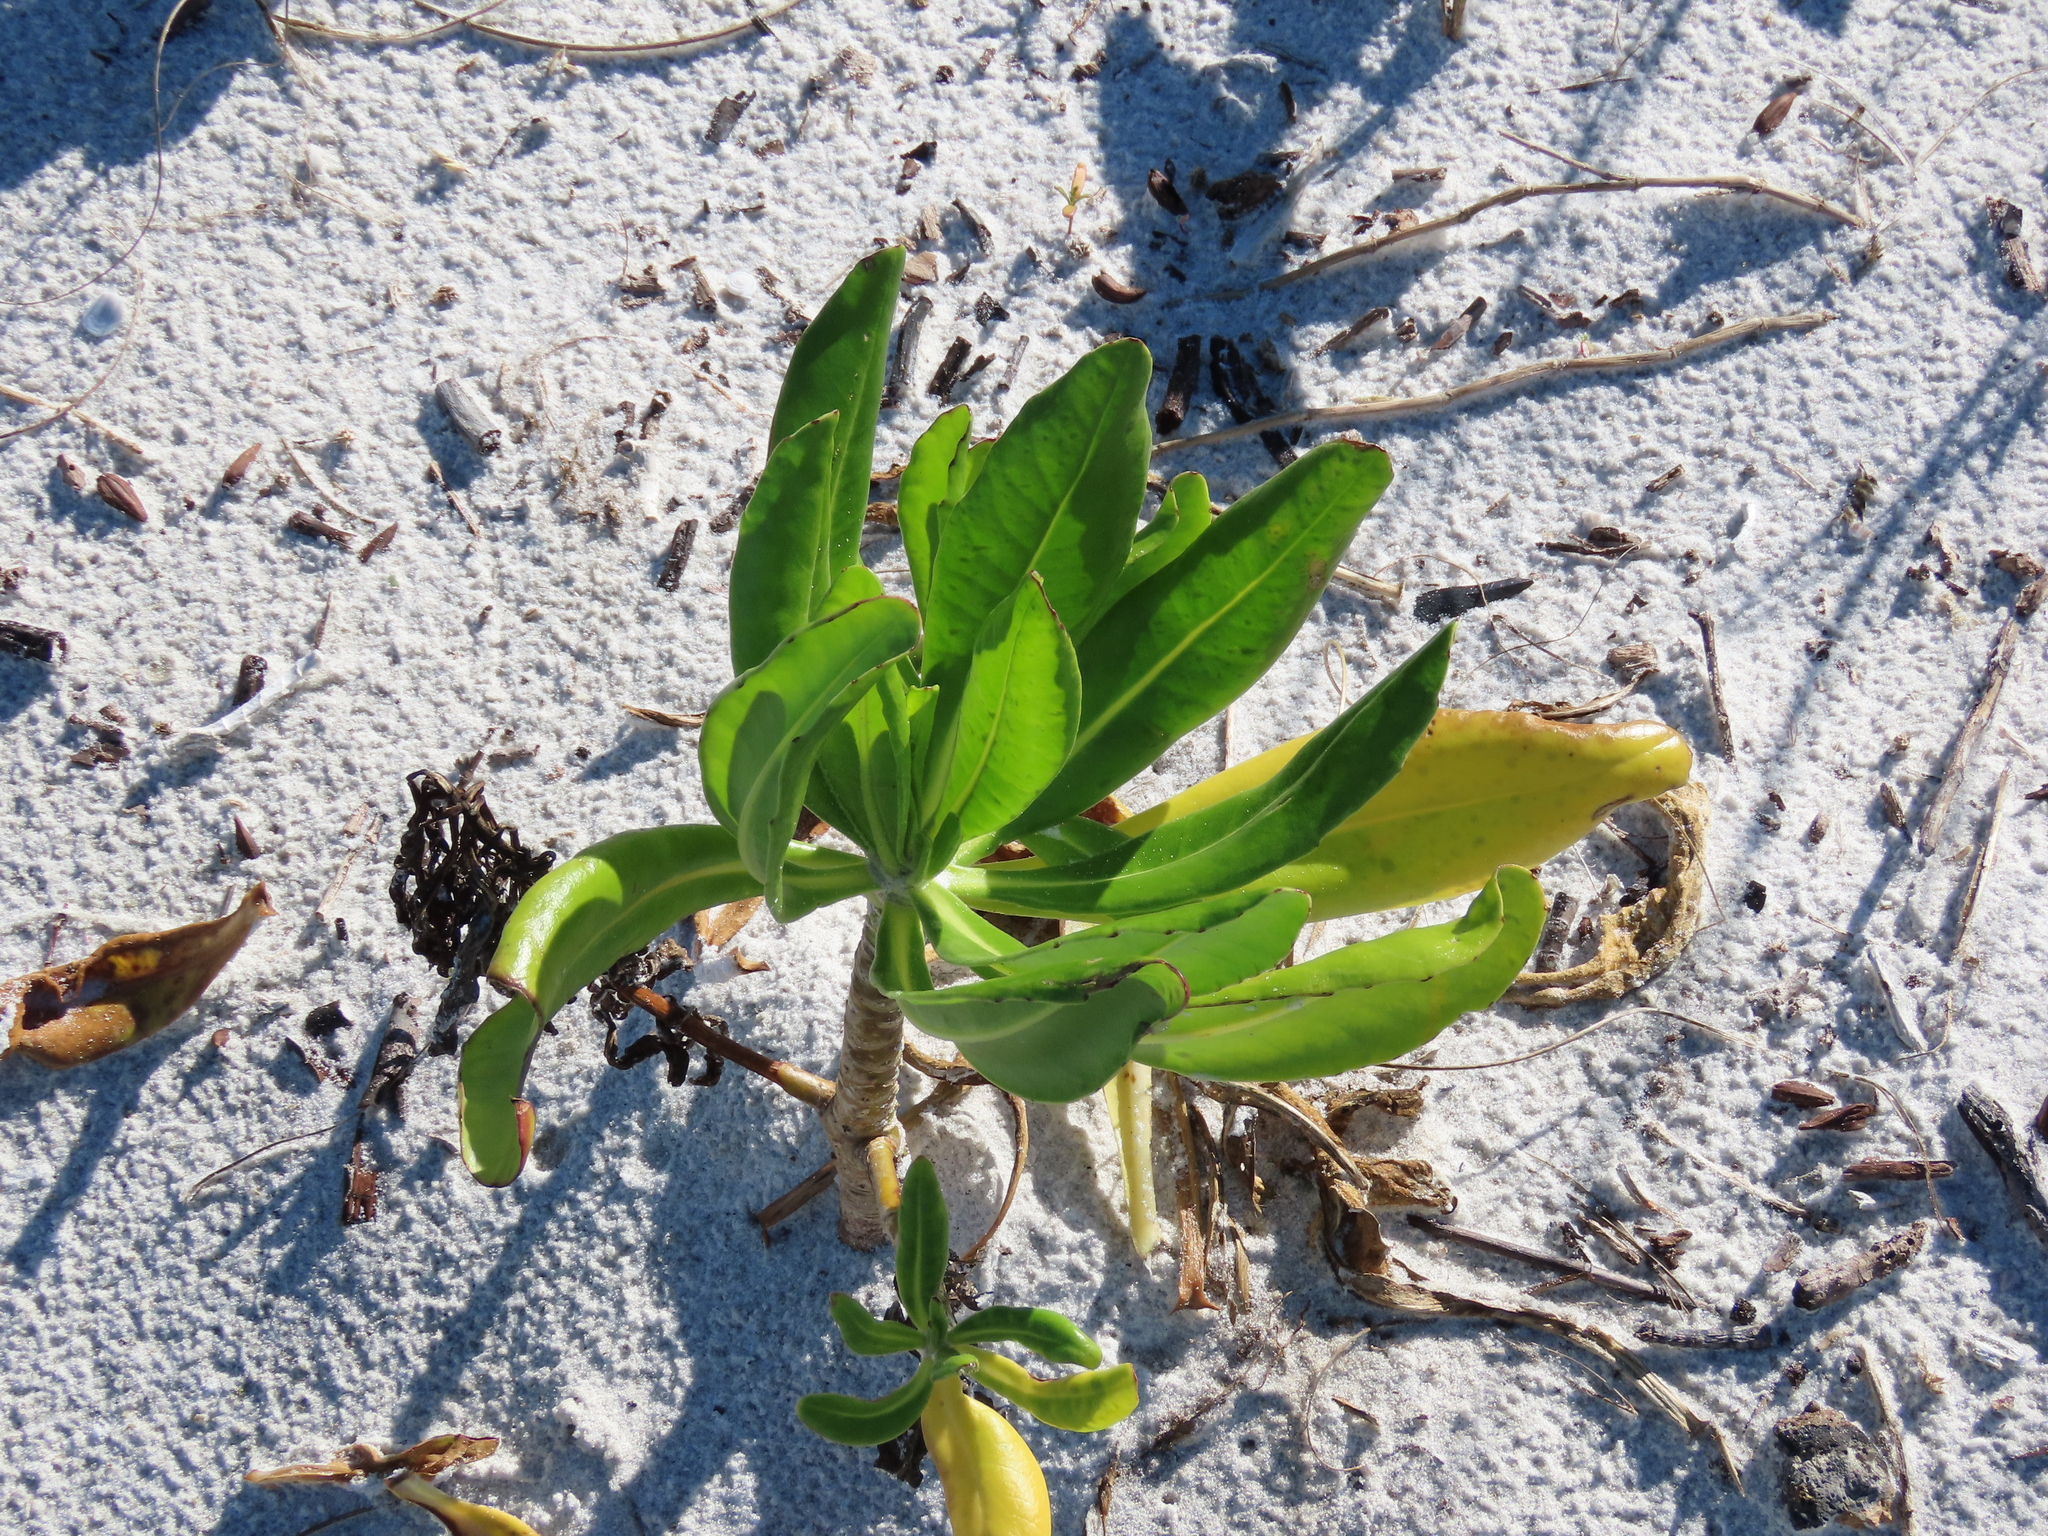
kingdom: Plantae
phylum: Tracheophyta
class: Magnoliopsida
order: Asterales
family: Goodeniaceae
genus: Scaevola
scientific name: Scaevola taccada
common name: Sea lettucetree
